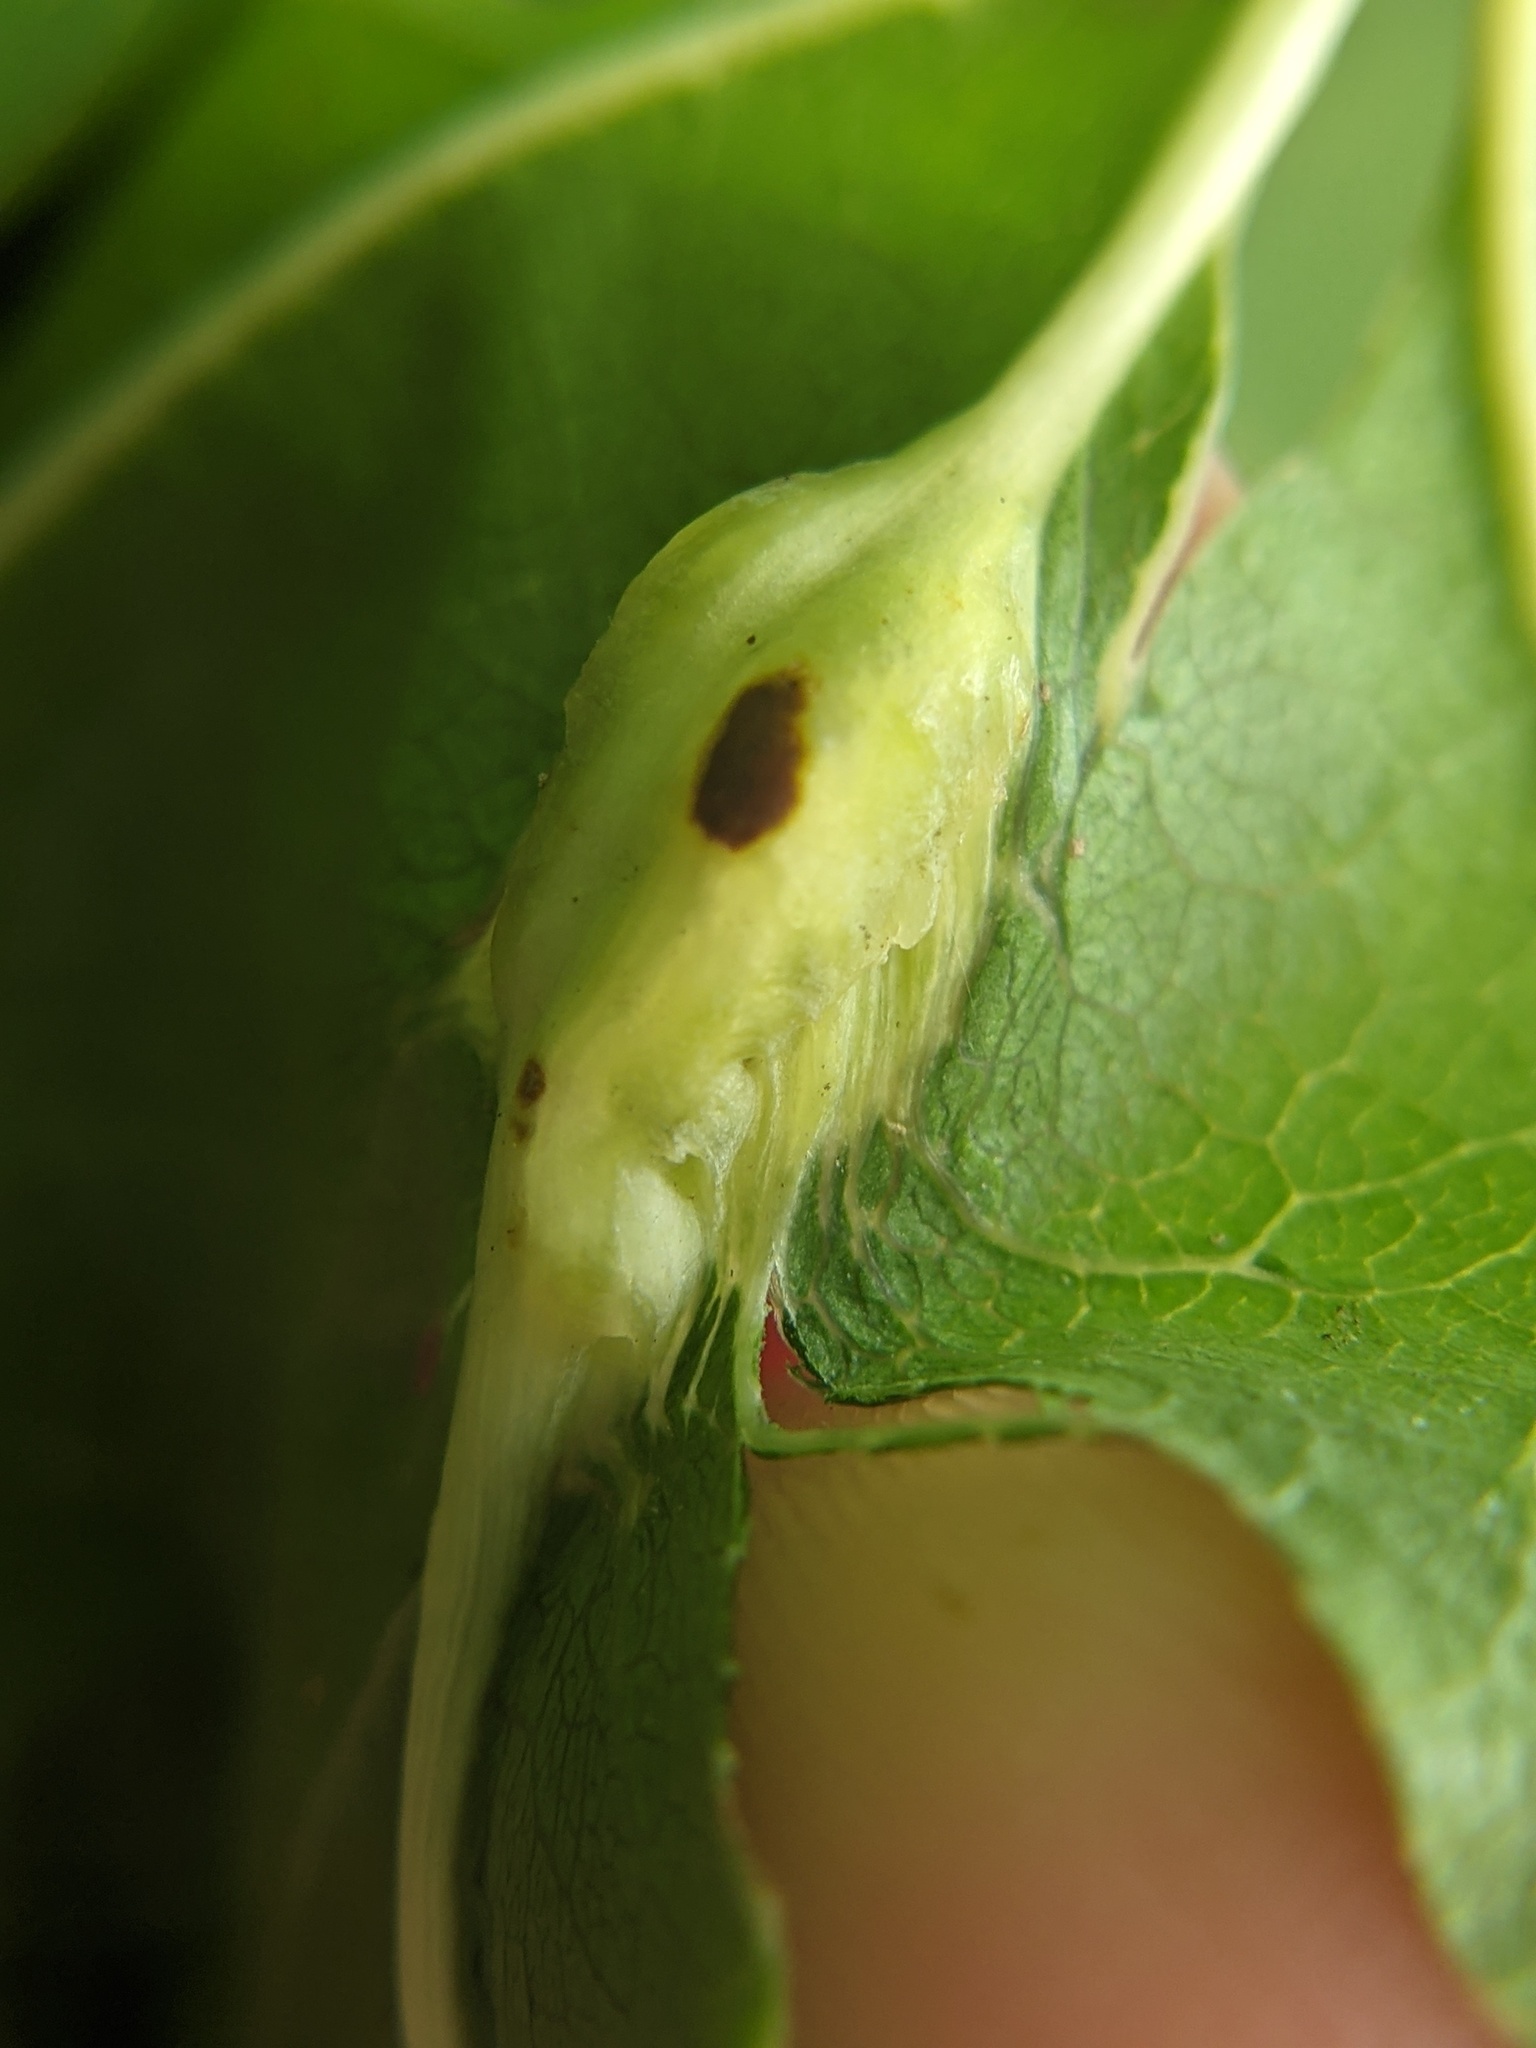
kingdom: Animalia
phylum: Arthropoda
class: Insecta
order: Hymenoptera
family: Cynipidae
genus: Kokkocynips
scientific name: Kokkocynips decidua
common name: Oak wheat gall
